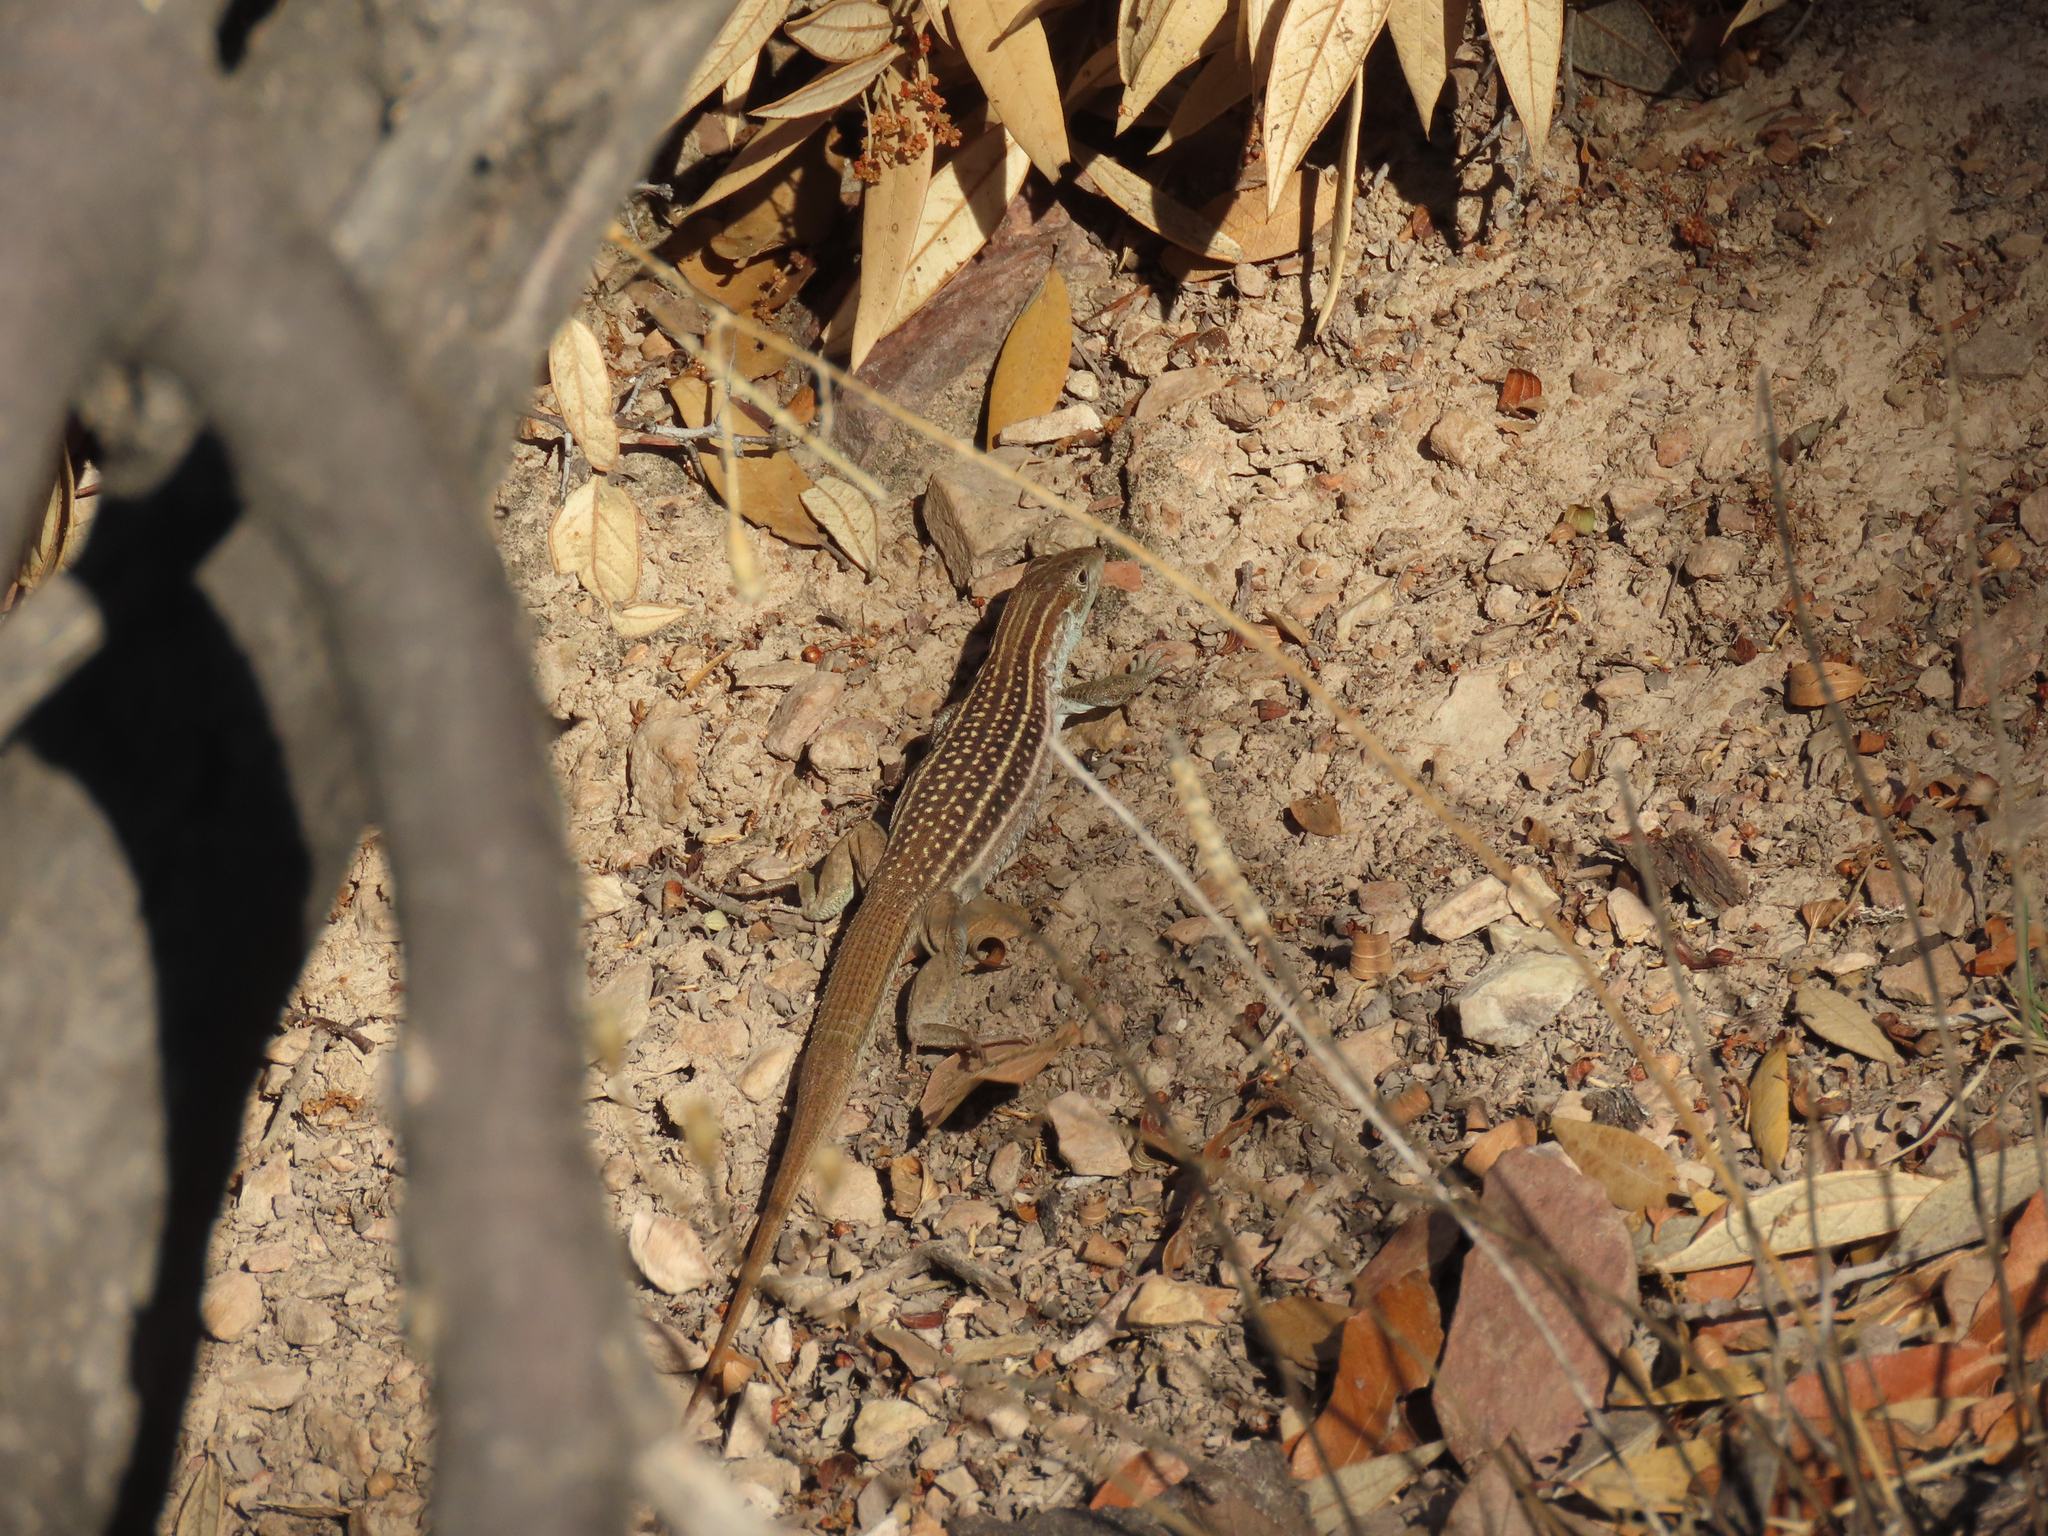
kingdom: Animalia
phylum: Chordata
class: Squamata
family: Teiidae
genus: Aspidoscelis
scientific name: Aspidoscelis stictogrammus
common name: Giant spotted whiptail
